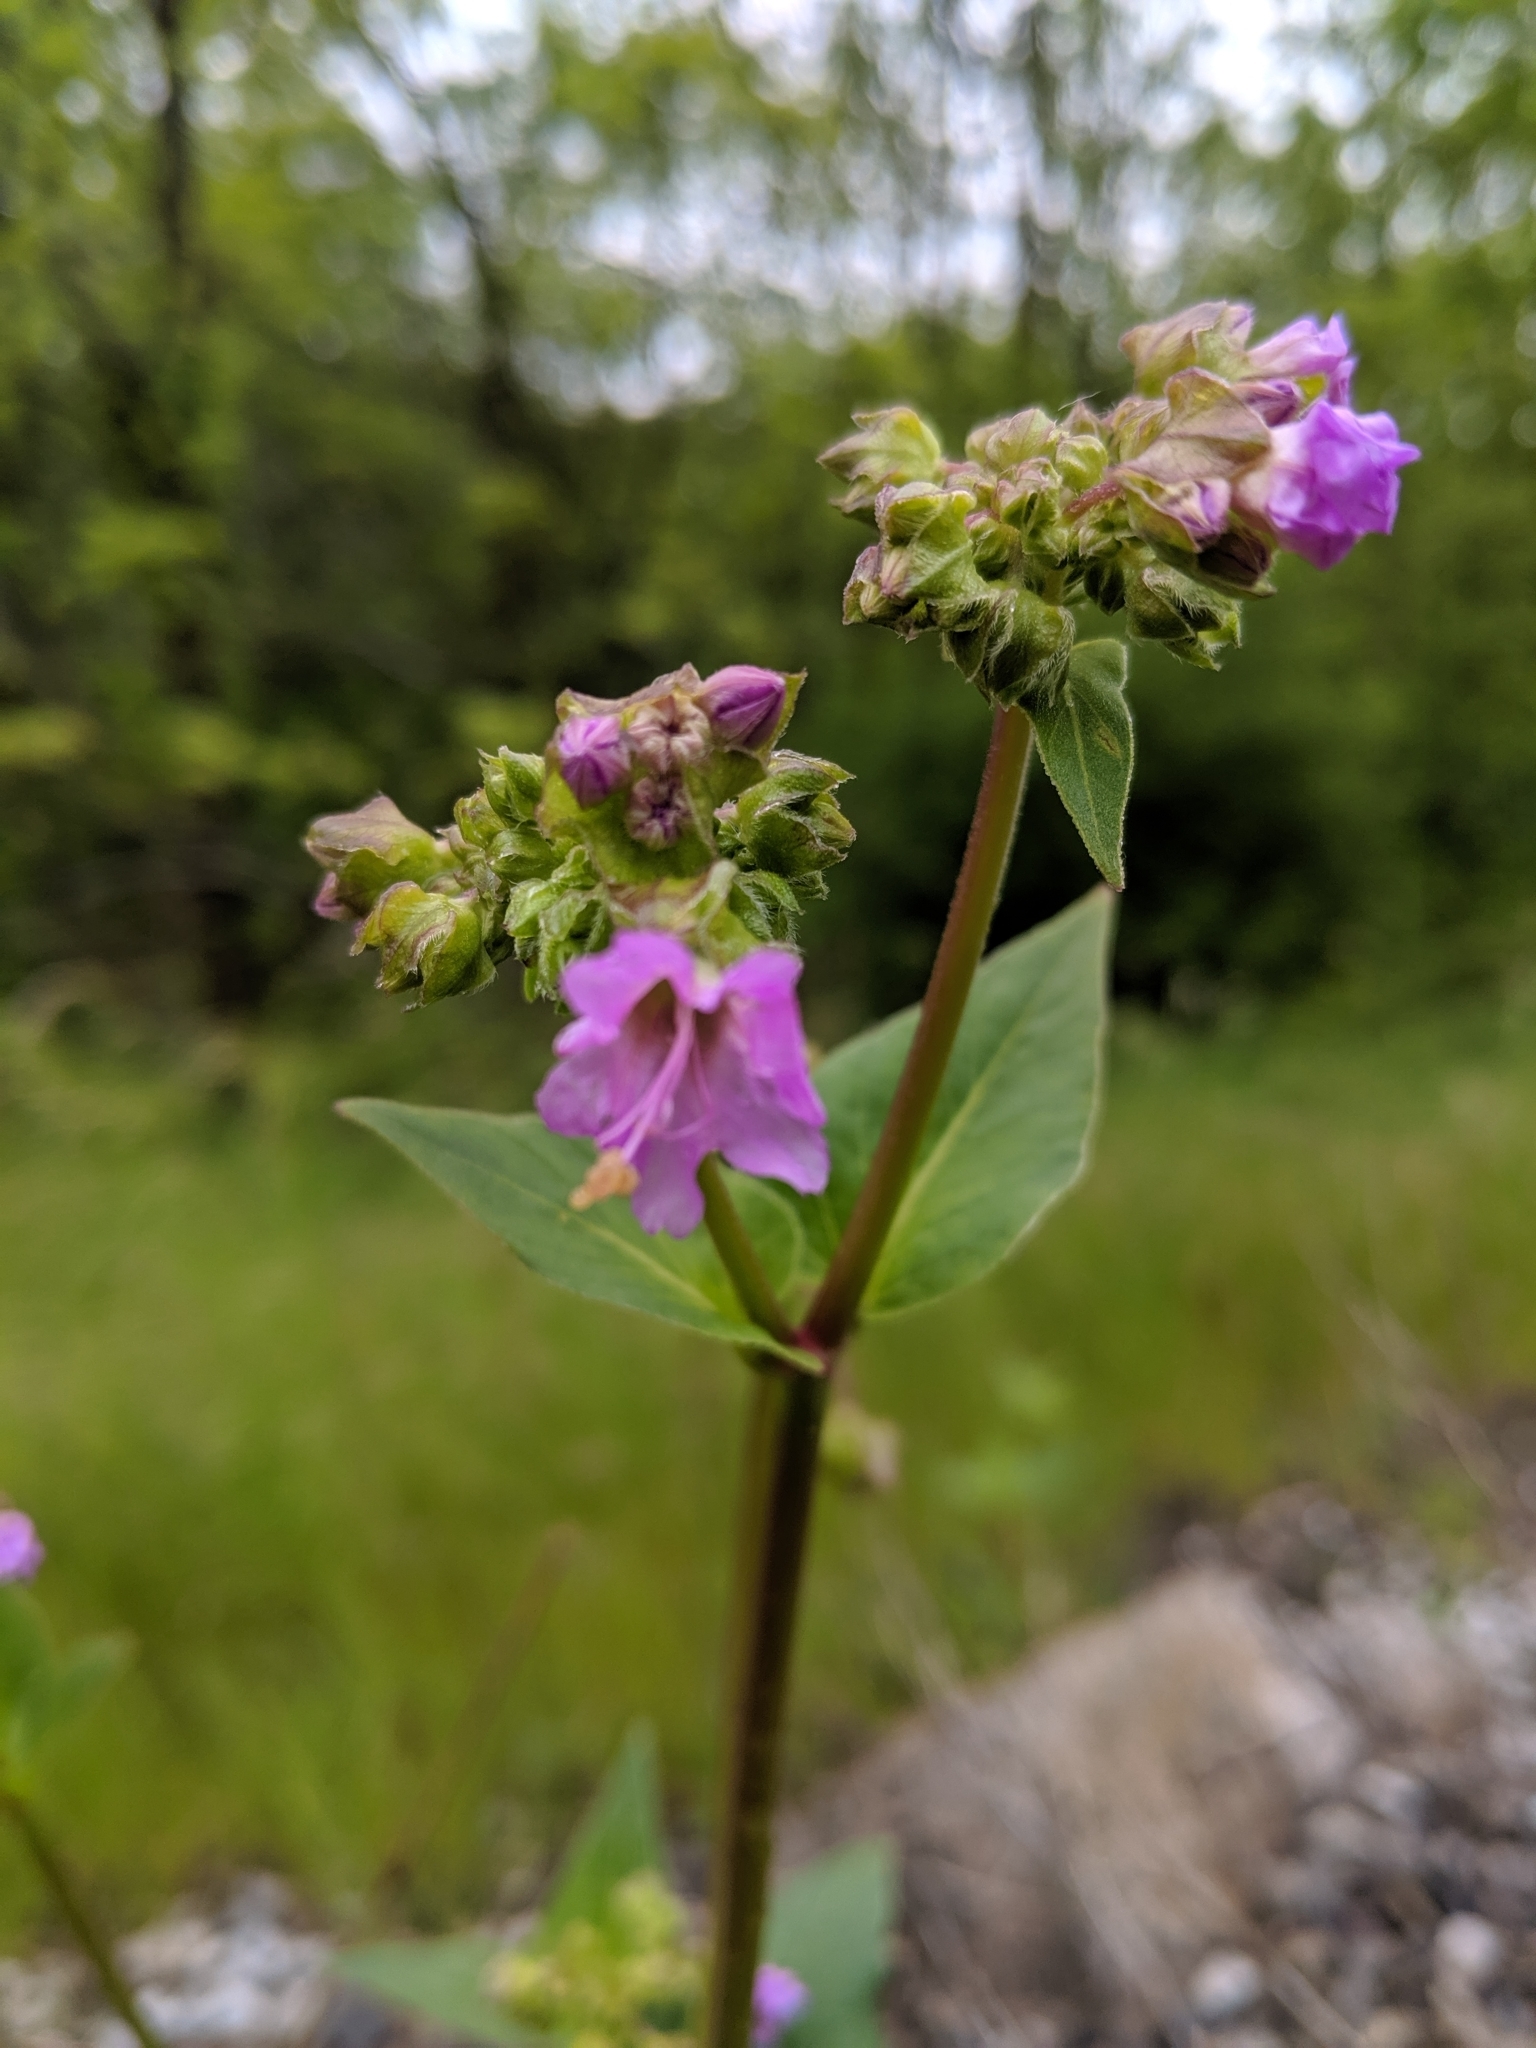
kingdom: Plantae
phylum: Tracheophyta
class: Magnoliopsida
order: Caryophyllales
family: Nyctaginaceae
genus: Mirabilis
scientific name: Mirabilis nyctaginea
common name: Umbrella wort
